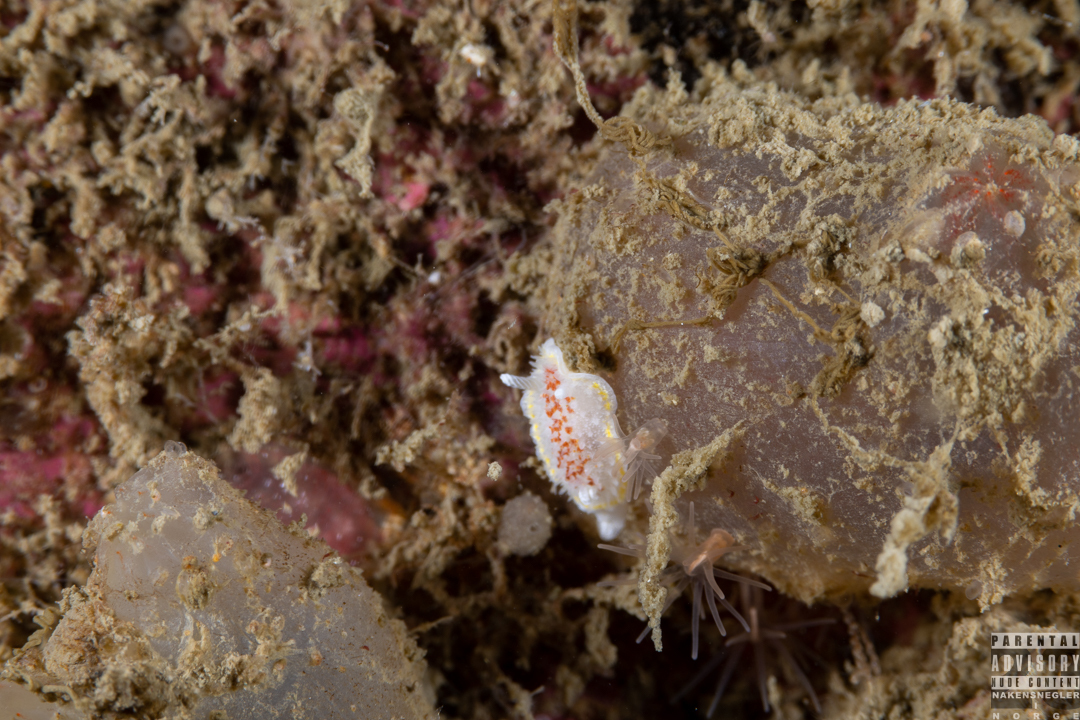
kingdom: Animalia
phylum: Mollusca
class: Gastropoda
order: Nudibranchia
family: Calycidorididae
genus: Diaphorodoris
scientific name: Diaphorodoris luteocincta
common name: Fried egg nudibranch
